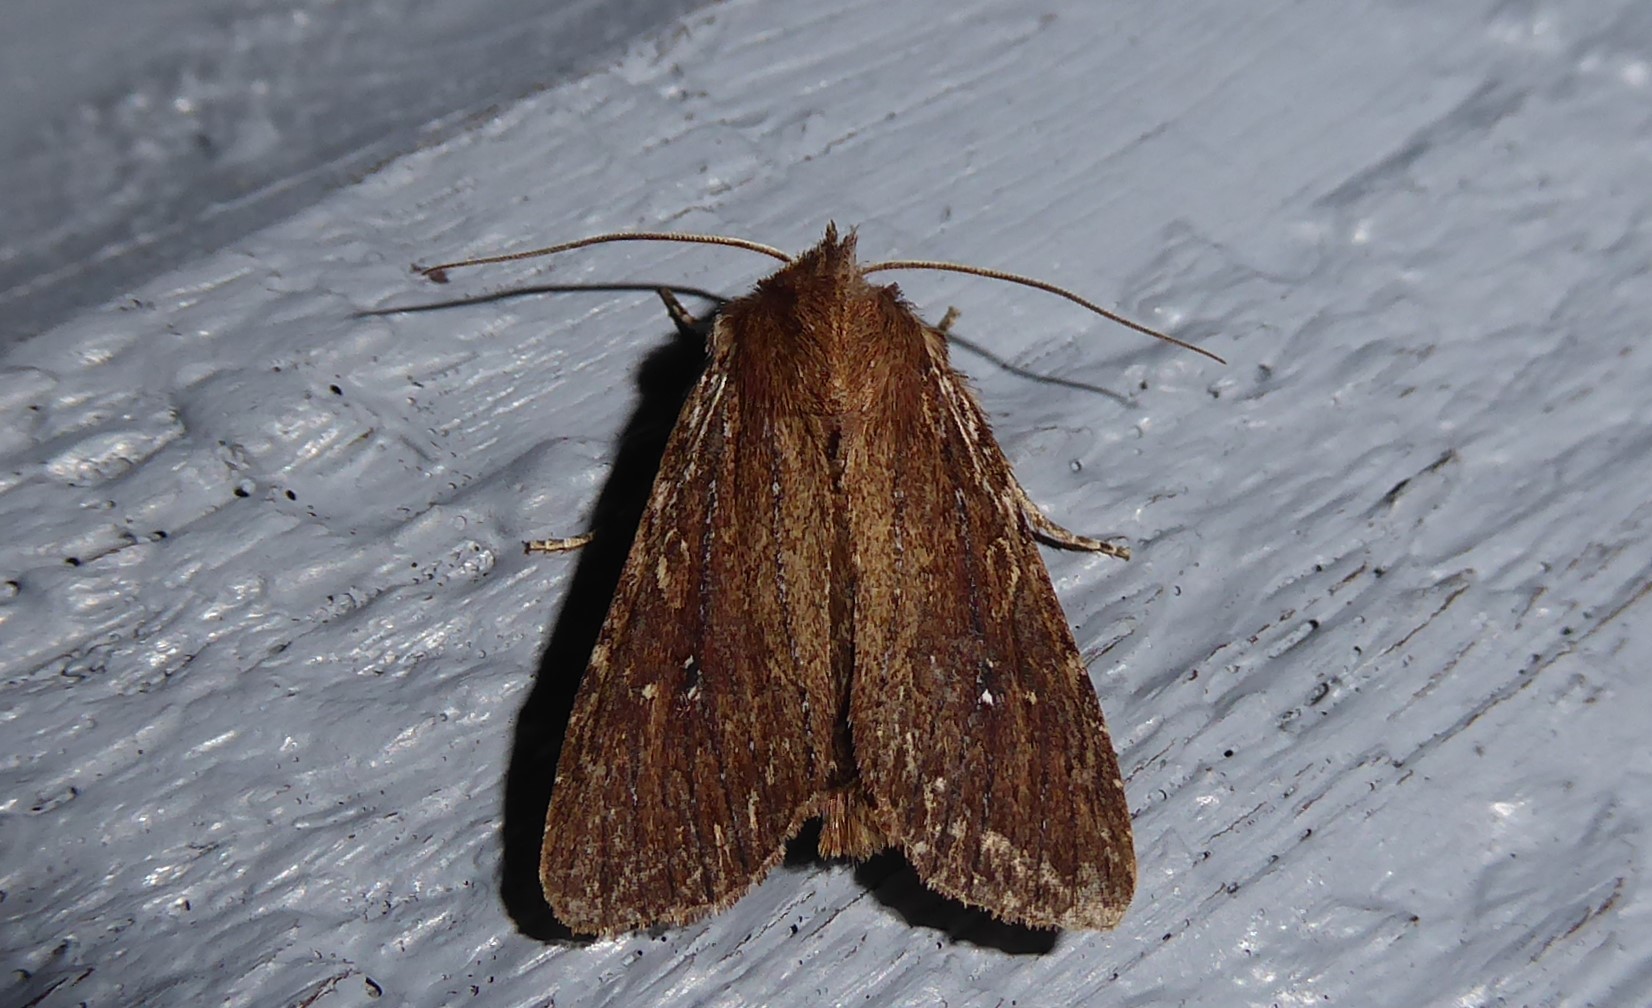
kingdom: Animalia
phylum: Arthropoda
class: Insecta
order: Lepidoptera
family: Noctuidae
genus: Ichneutica
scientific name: Ichneutica
